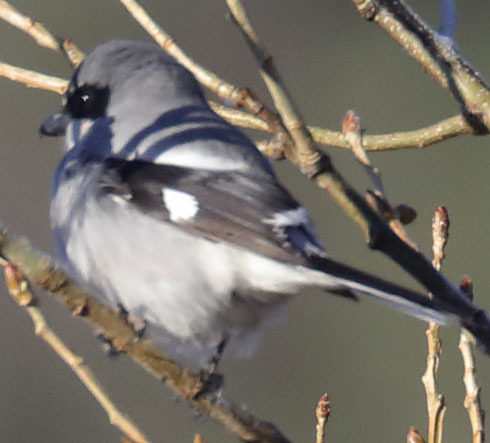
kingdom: Animalia
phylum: Chordata
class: Aves
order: Passeriformes
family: Laniidae
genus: Lanius
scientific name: Lanius ludovicianus
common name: Loggerhead shrike
